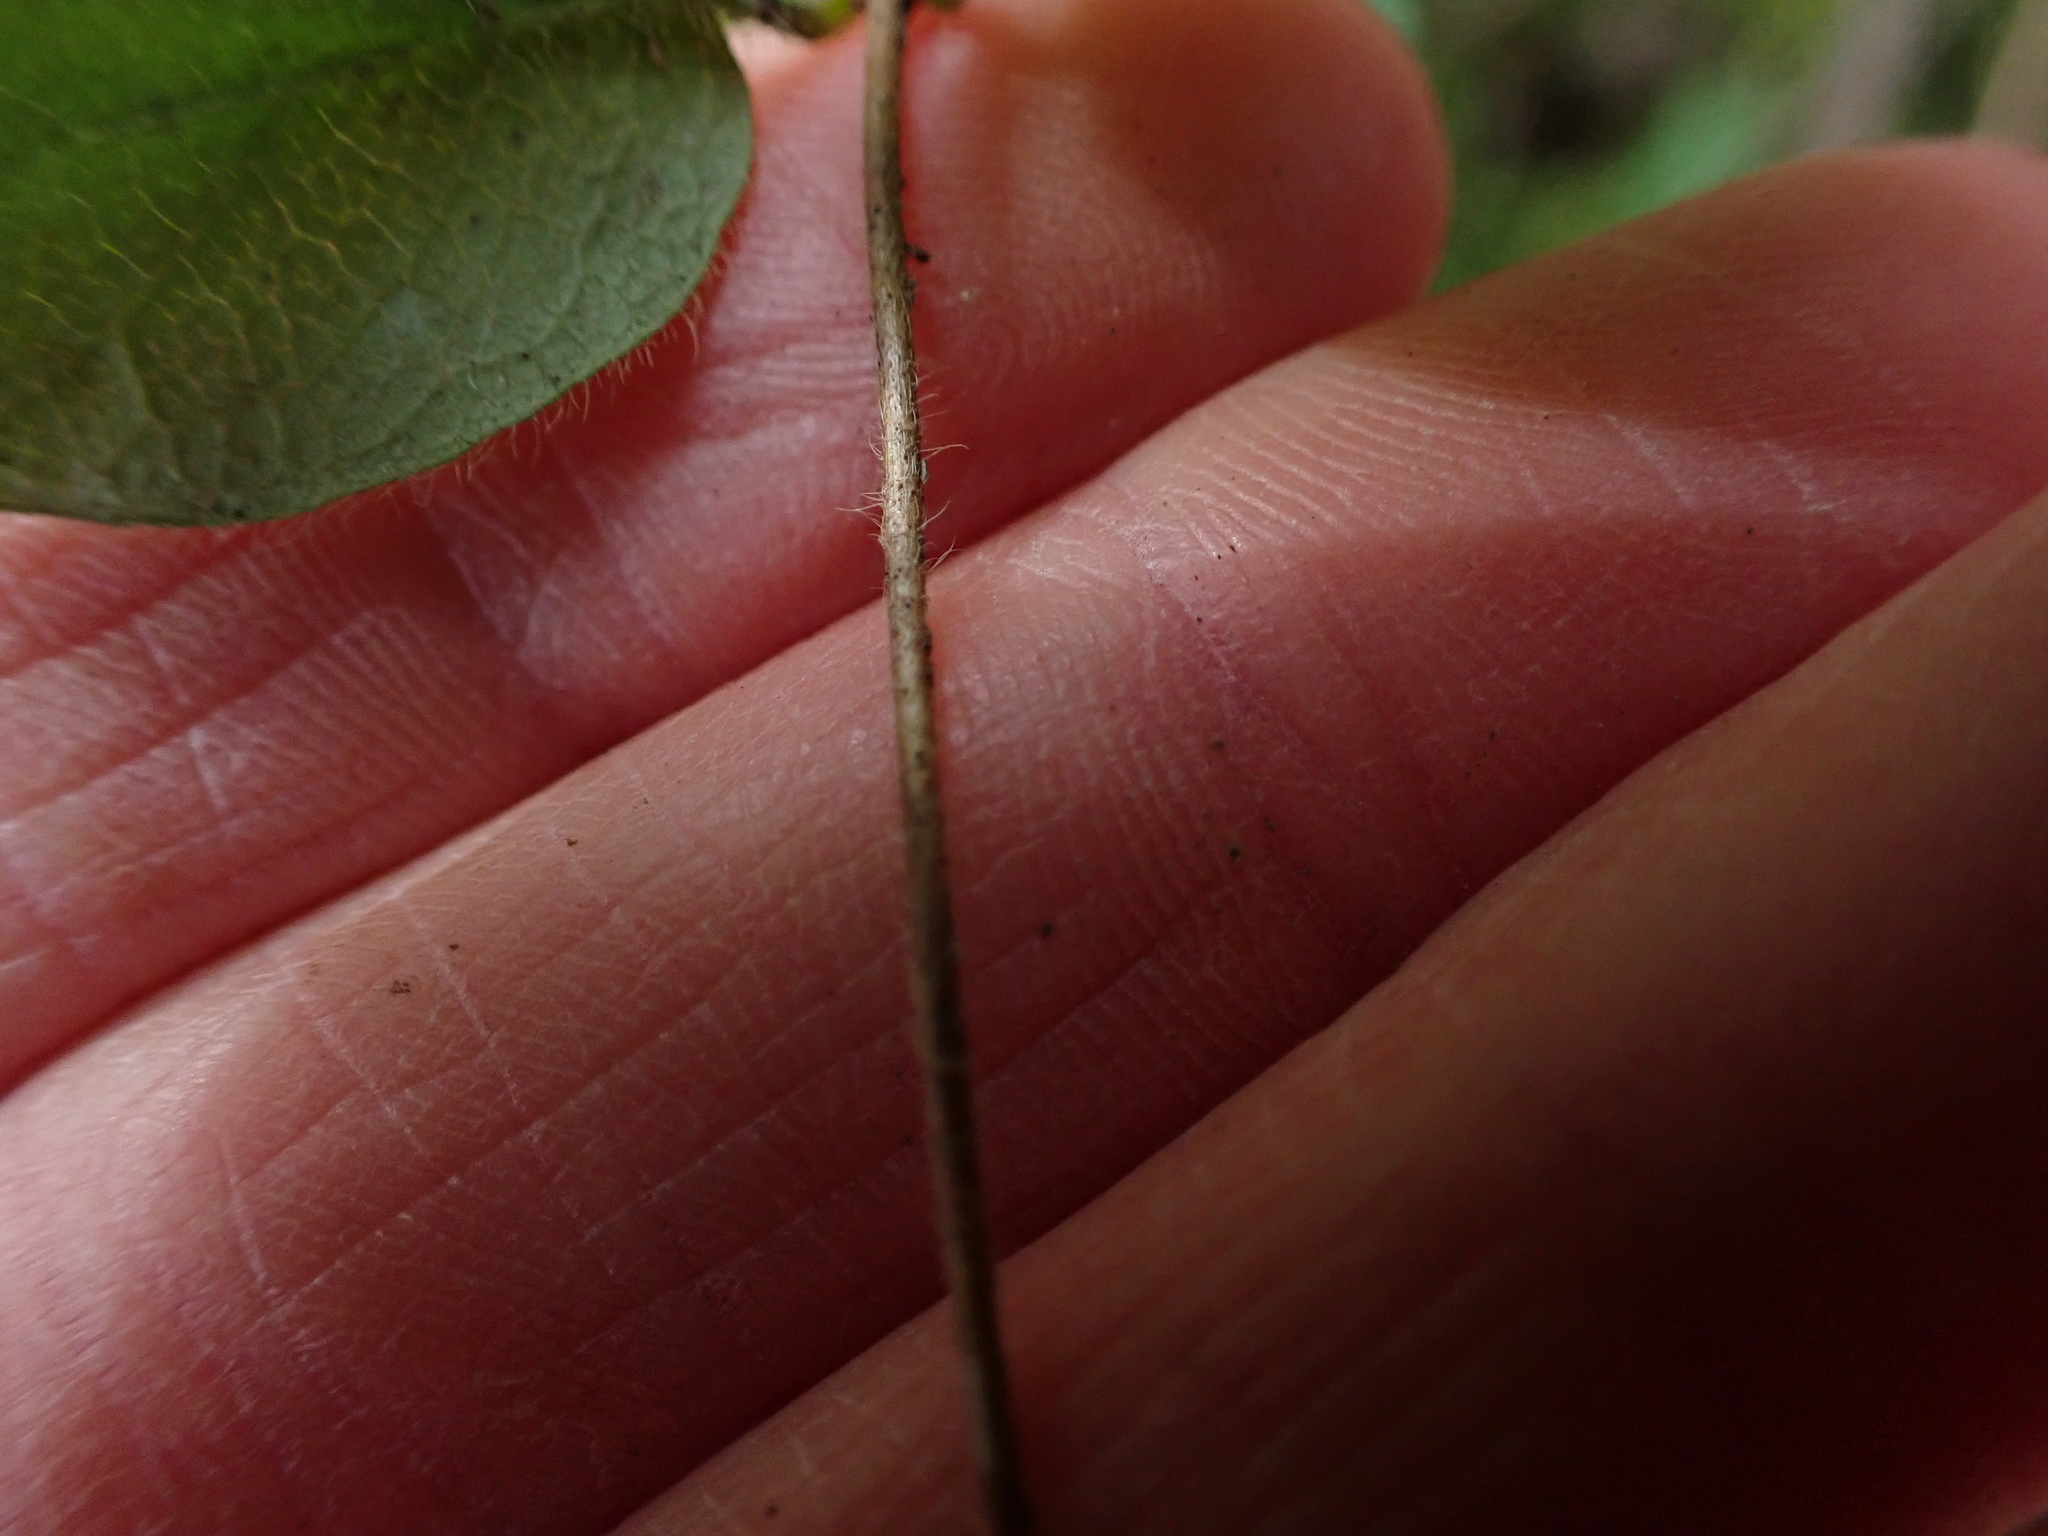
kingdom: Plantae
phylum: Tracheophyta
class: Magnoliopsida
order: Dipsacales
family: Caprifoliaceae
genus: Lonicera
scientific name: Lonicera hispidula
